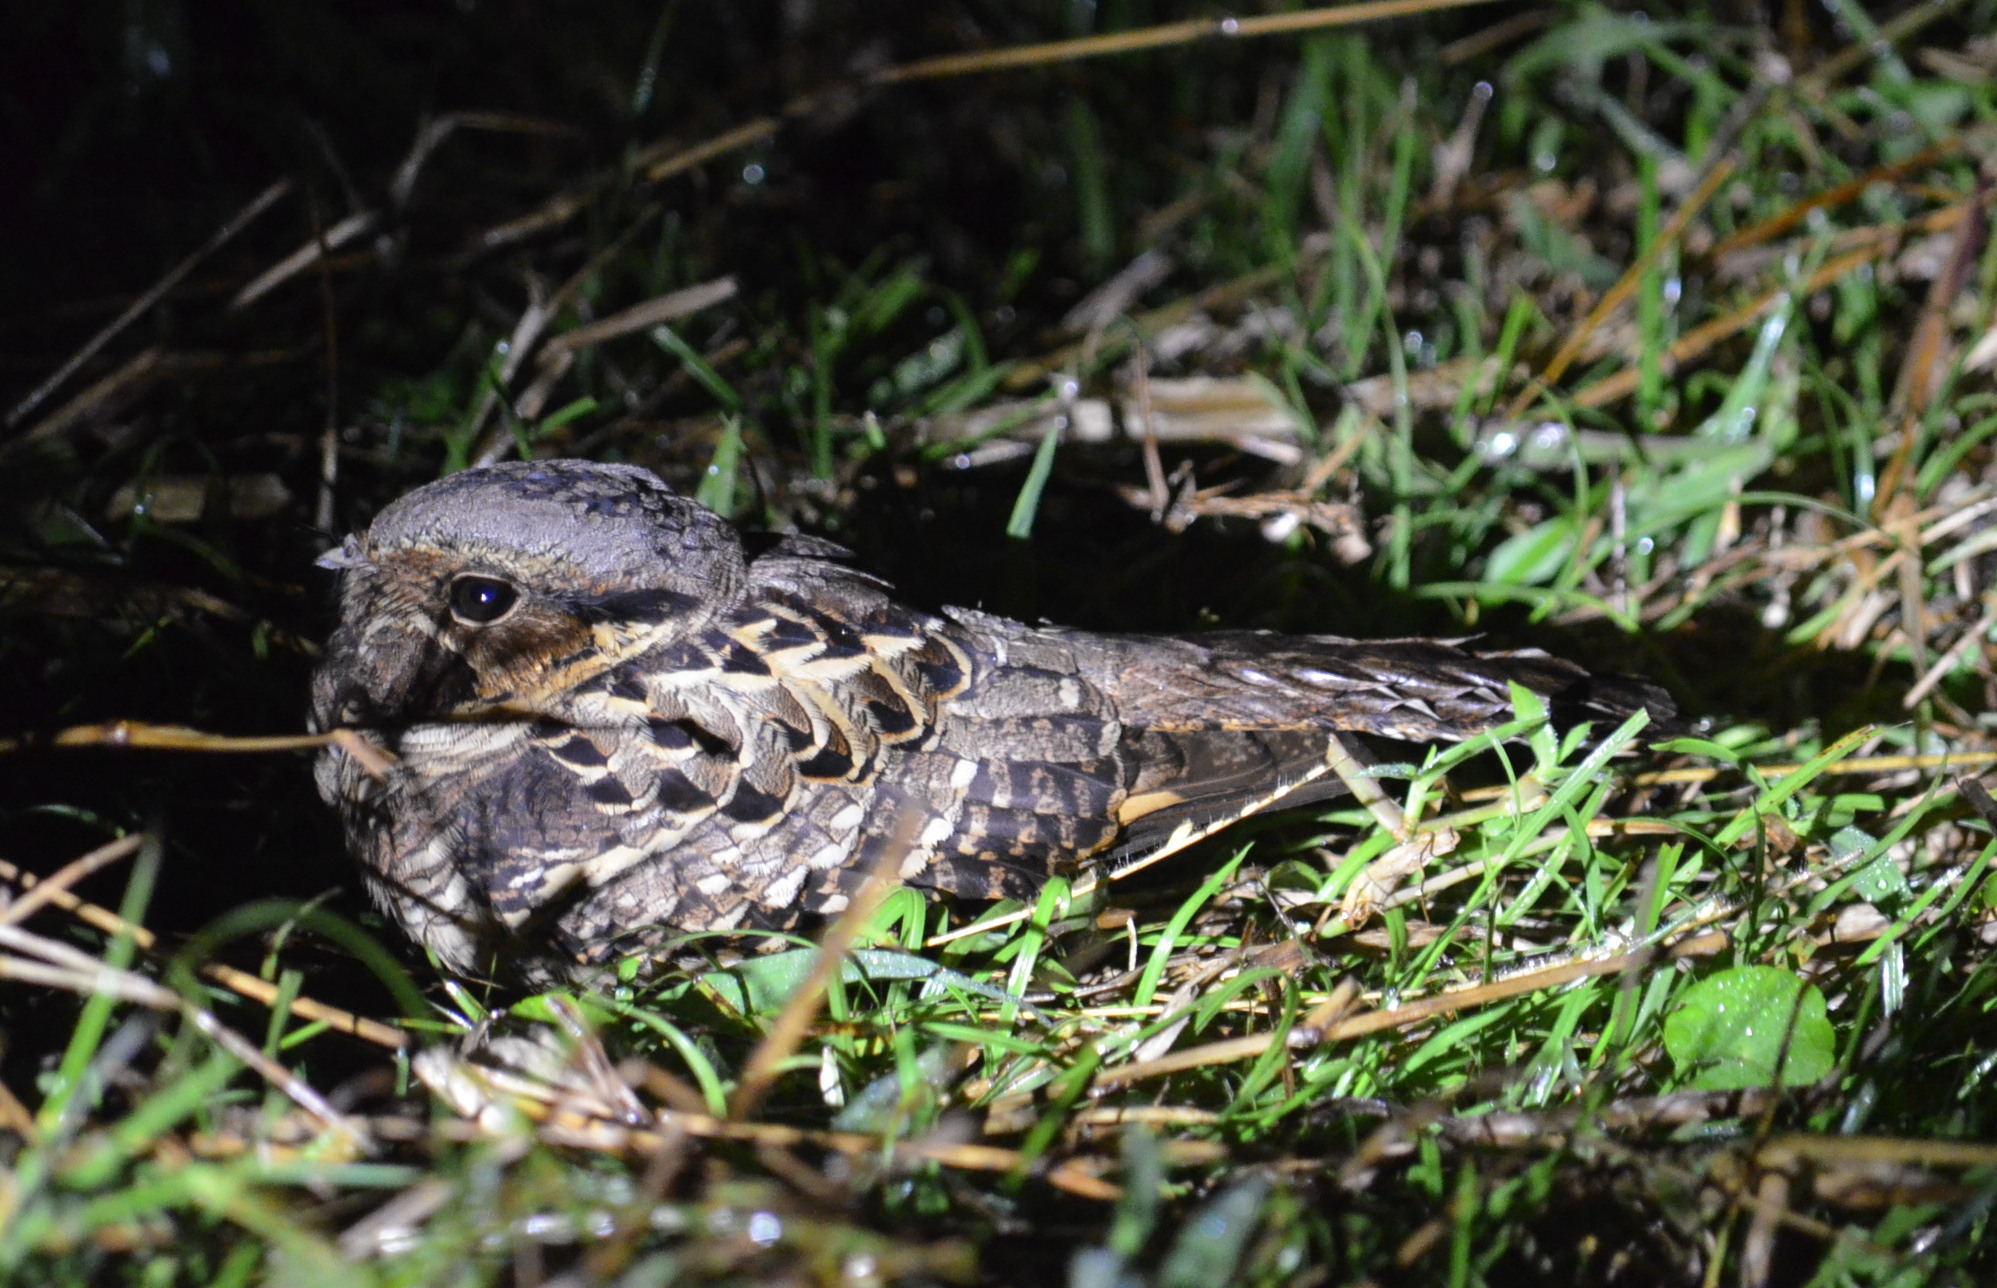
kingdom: Animalia
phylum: Chordata
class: Aves
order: Caprimulgiformes
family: Caprimulgidae
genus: Nyctidromus
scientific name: Nyctidromus albicollis
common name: Pauraque
